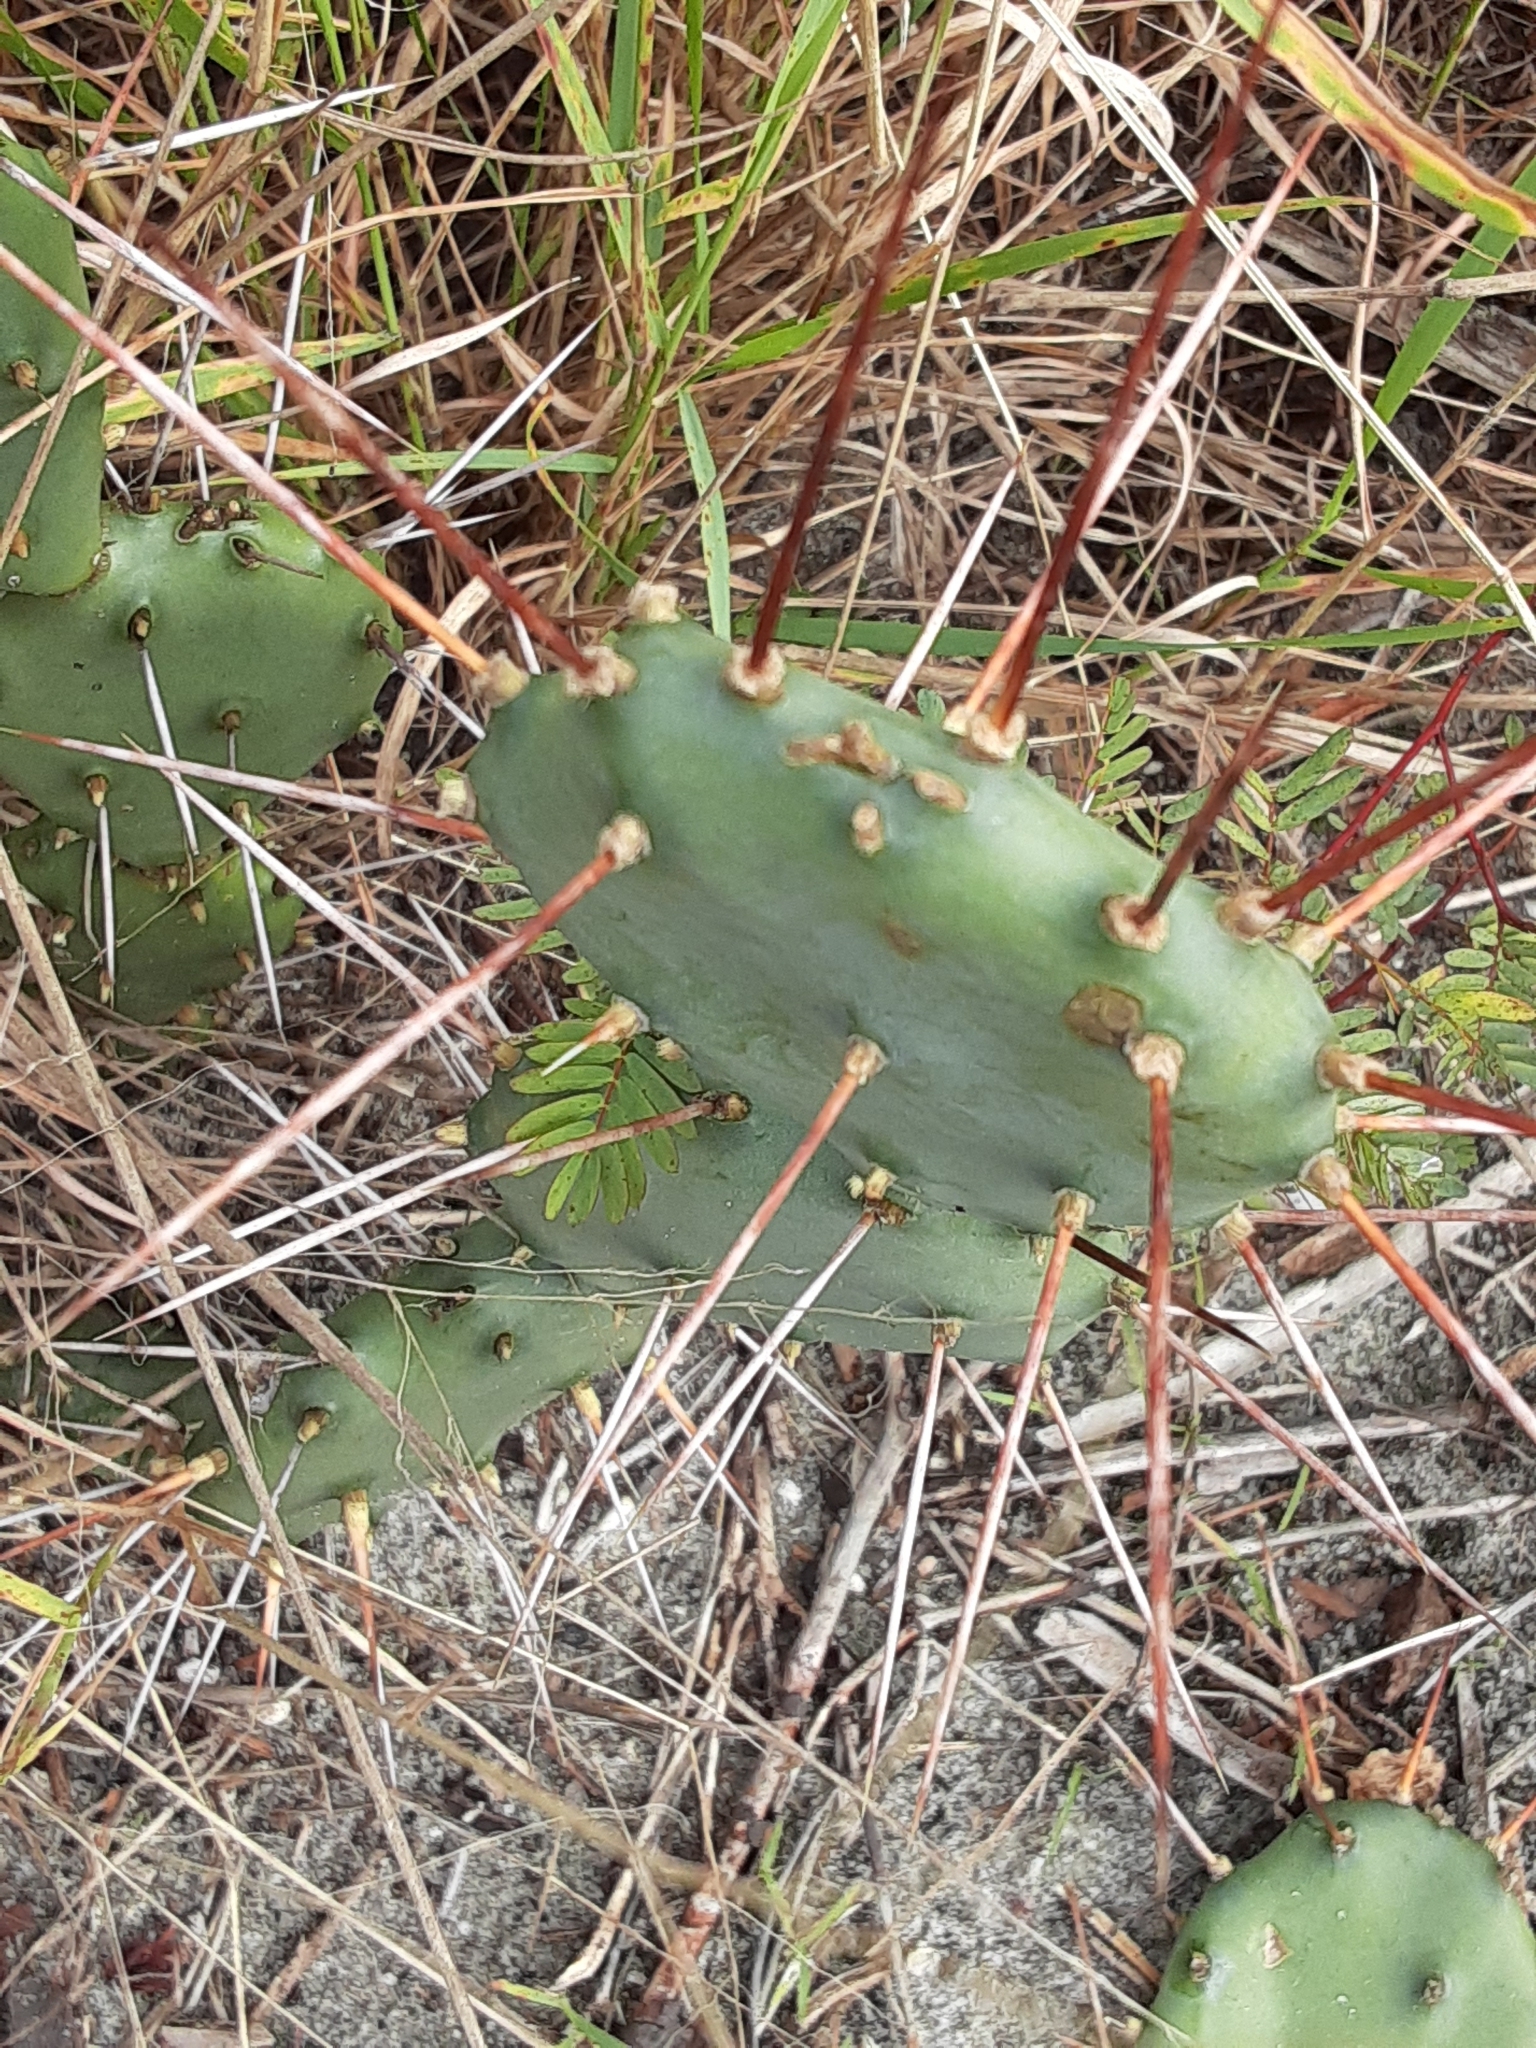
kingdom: Plantae
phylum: Tracheophyta
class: Magnoliopsida
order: Caryophyllales
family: Cactaceae
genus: Opuntia
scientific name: Opuntia austrina
